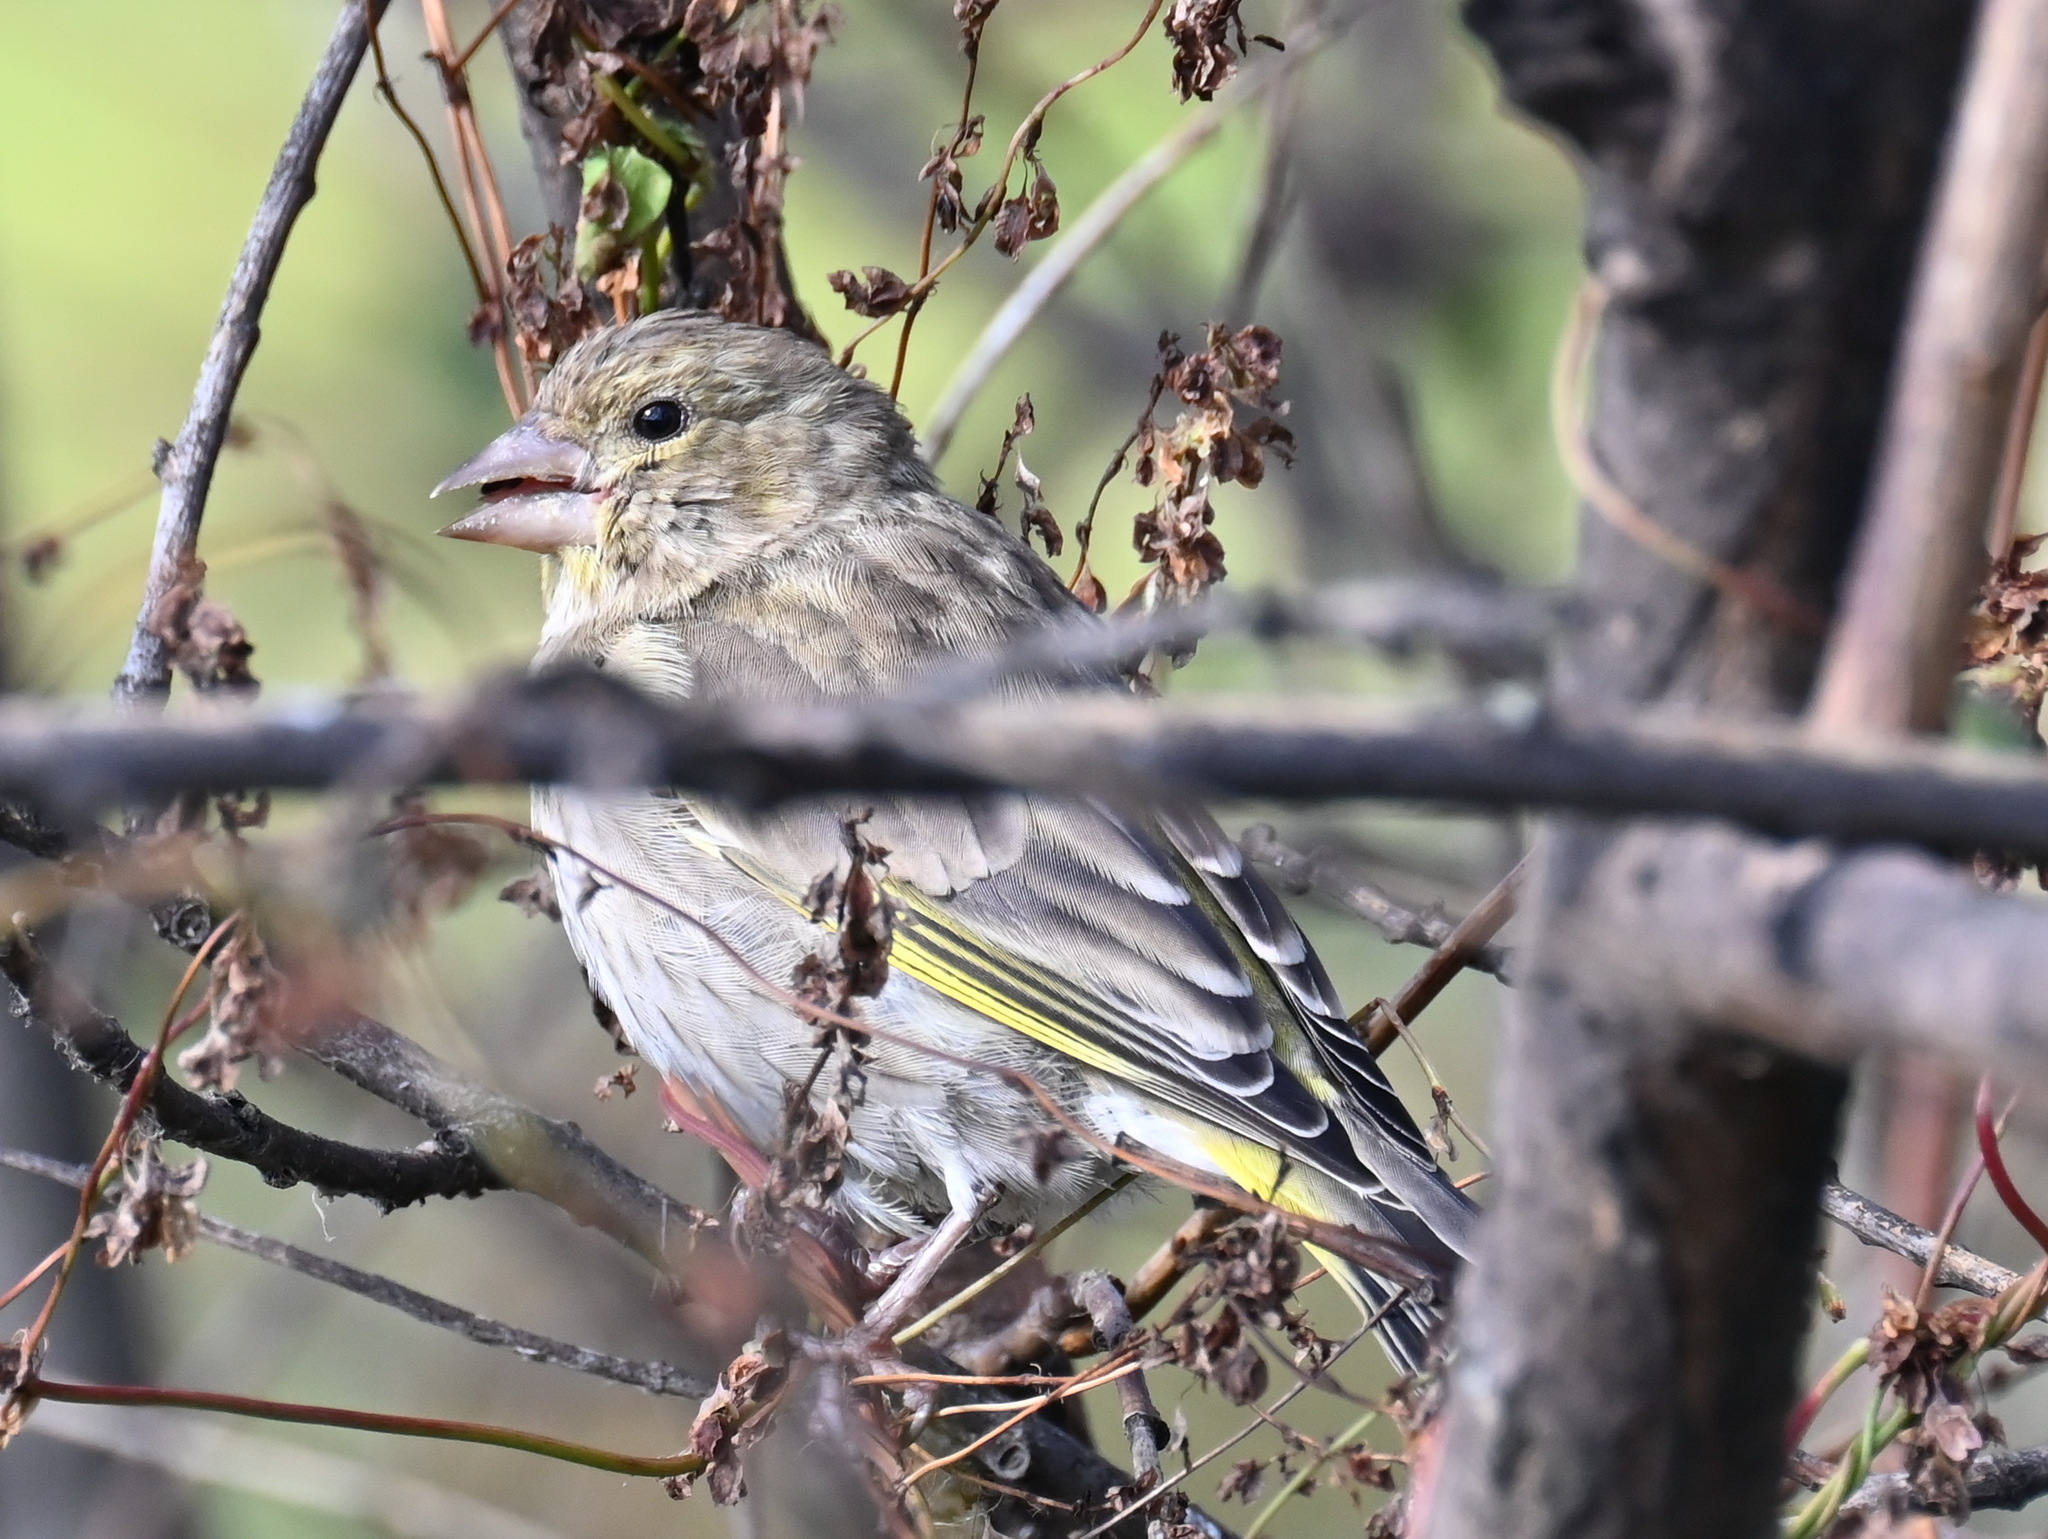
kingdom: Plantae
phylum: Tracheophyta
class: Liliopsida
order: Poales
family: Poaceae
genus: Chloris
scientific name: Chloris chloris
